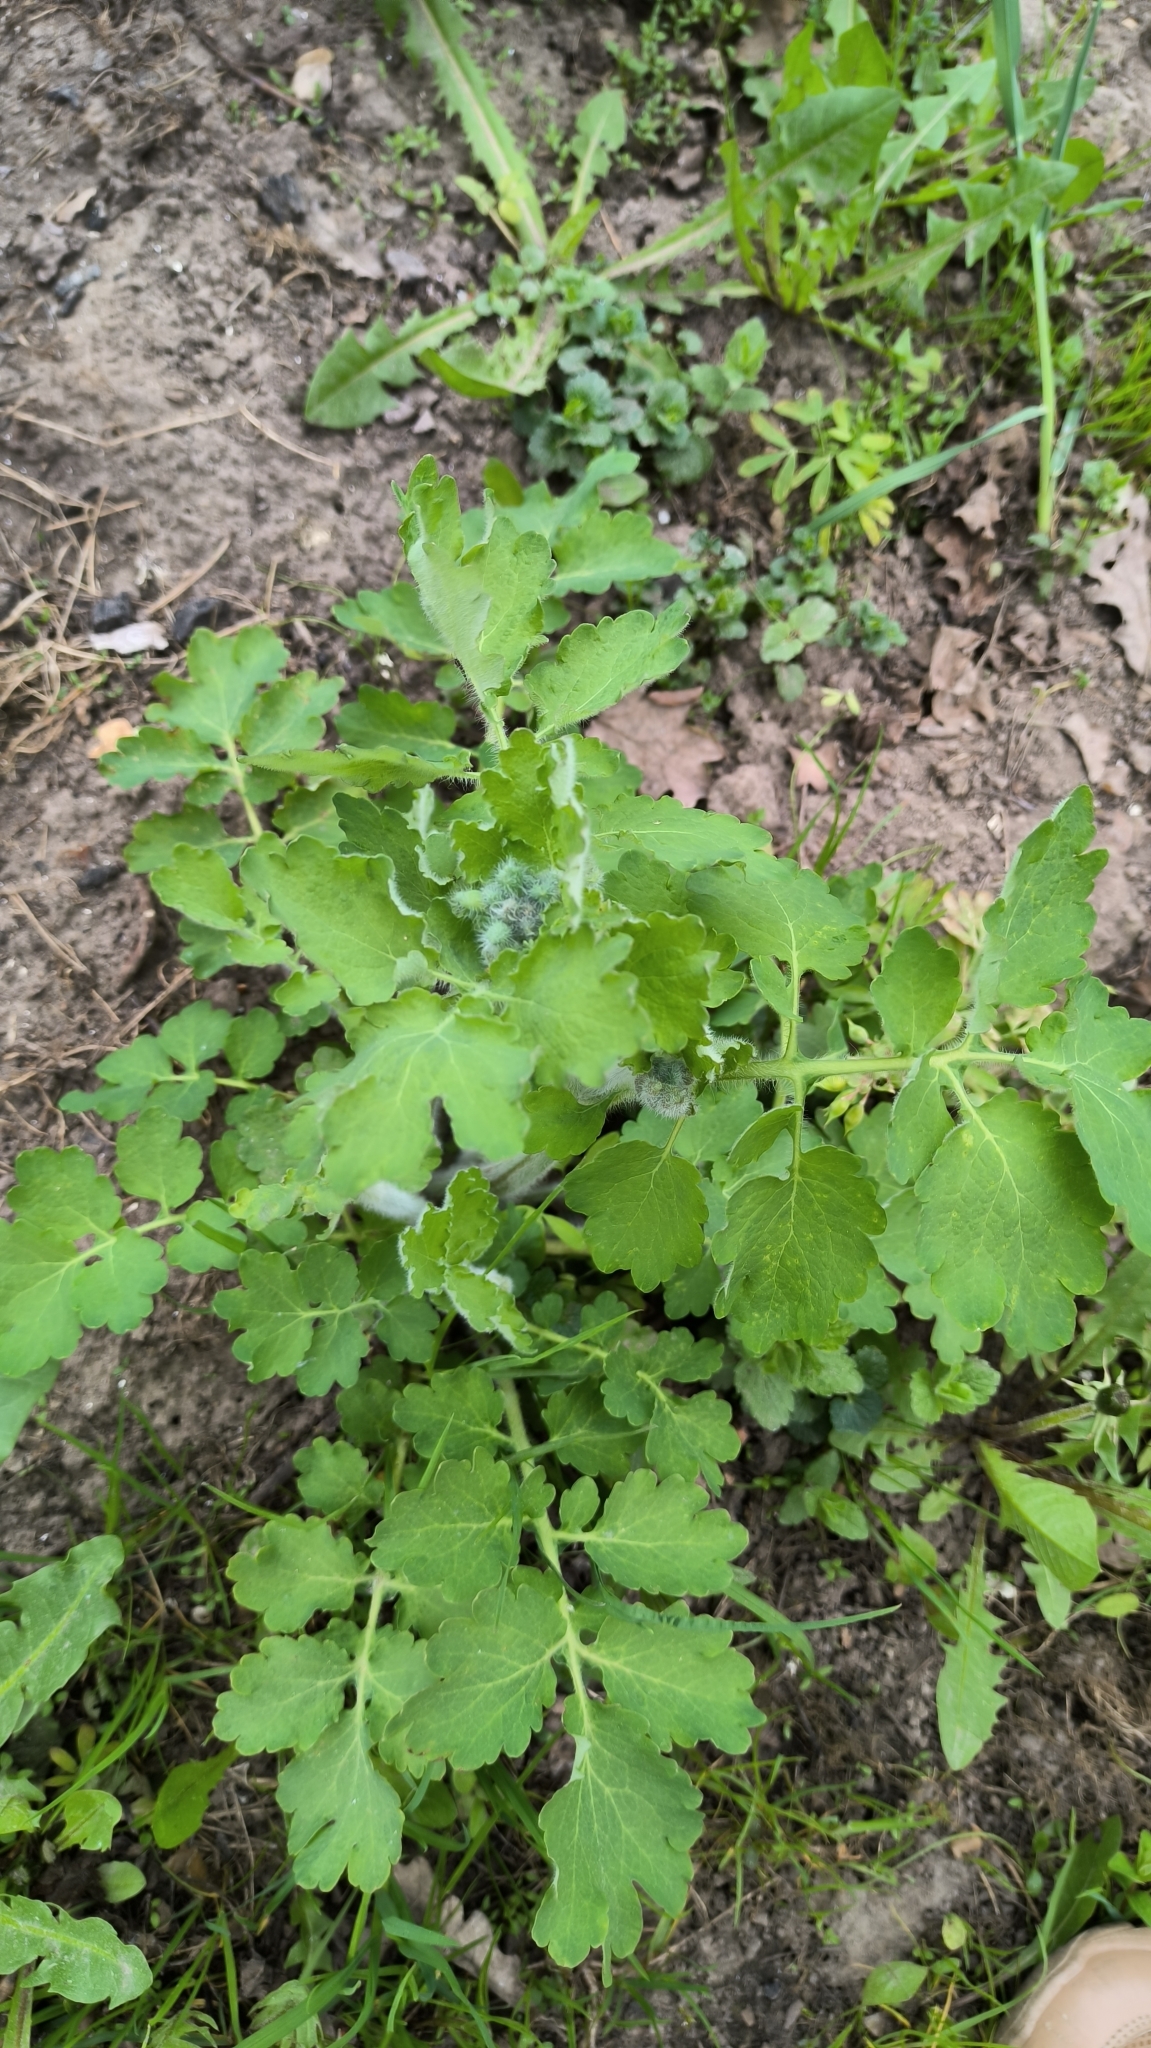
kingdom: Plantae
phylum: Tracheophyta
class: Magnoliopsida
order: Ranunculales
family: Papaveraceae
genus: Chelidonium
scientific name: Chelidonium majus
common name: Greater celandine
